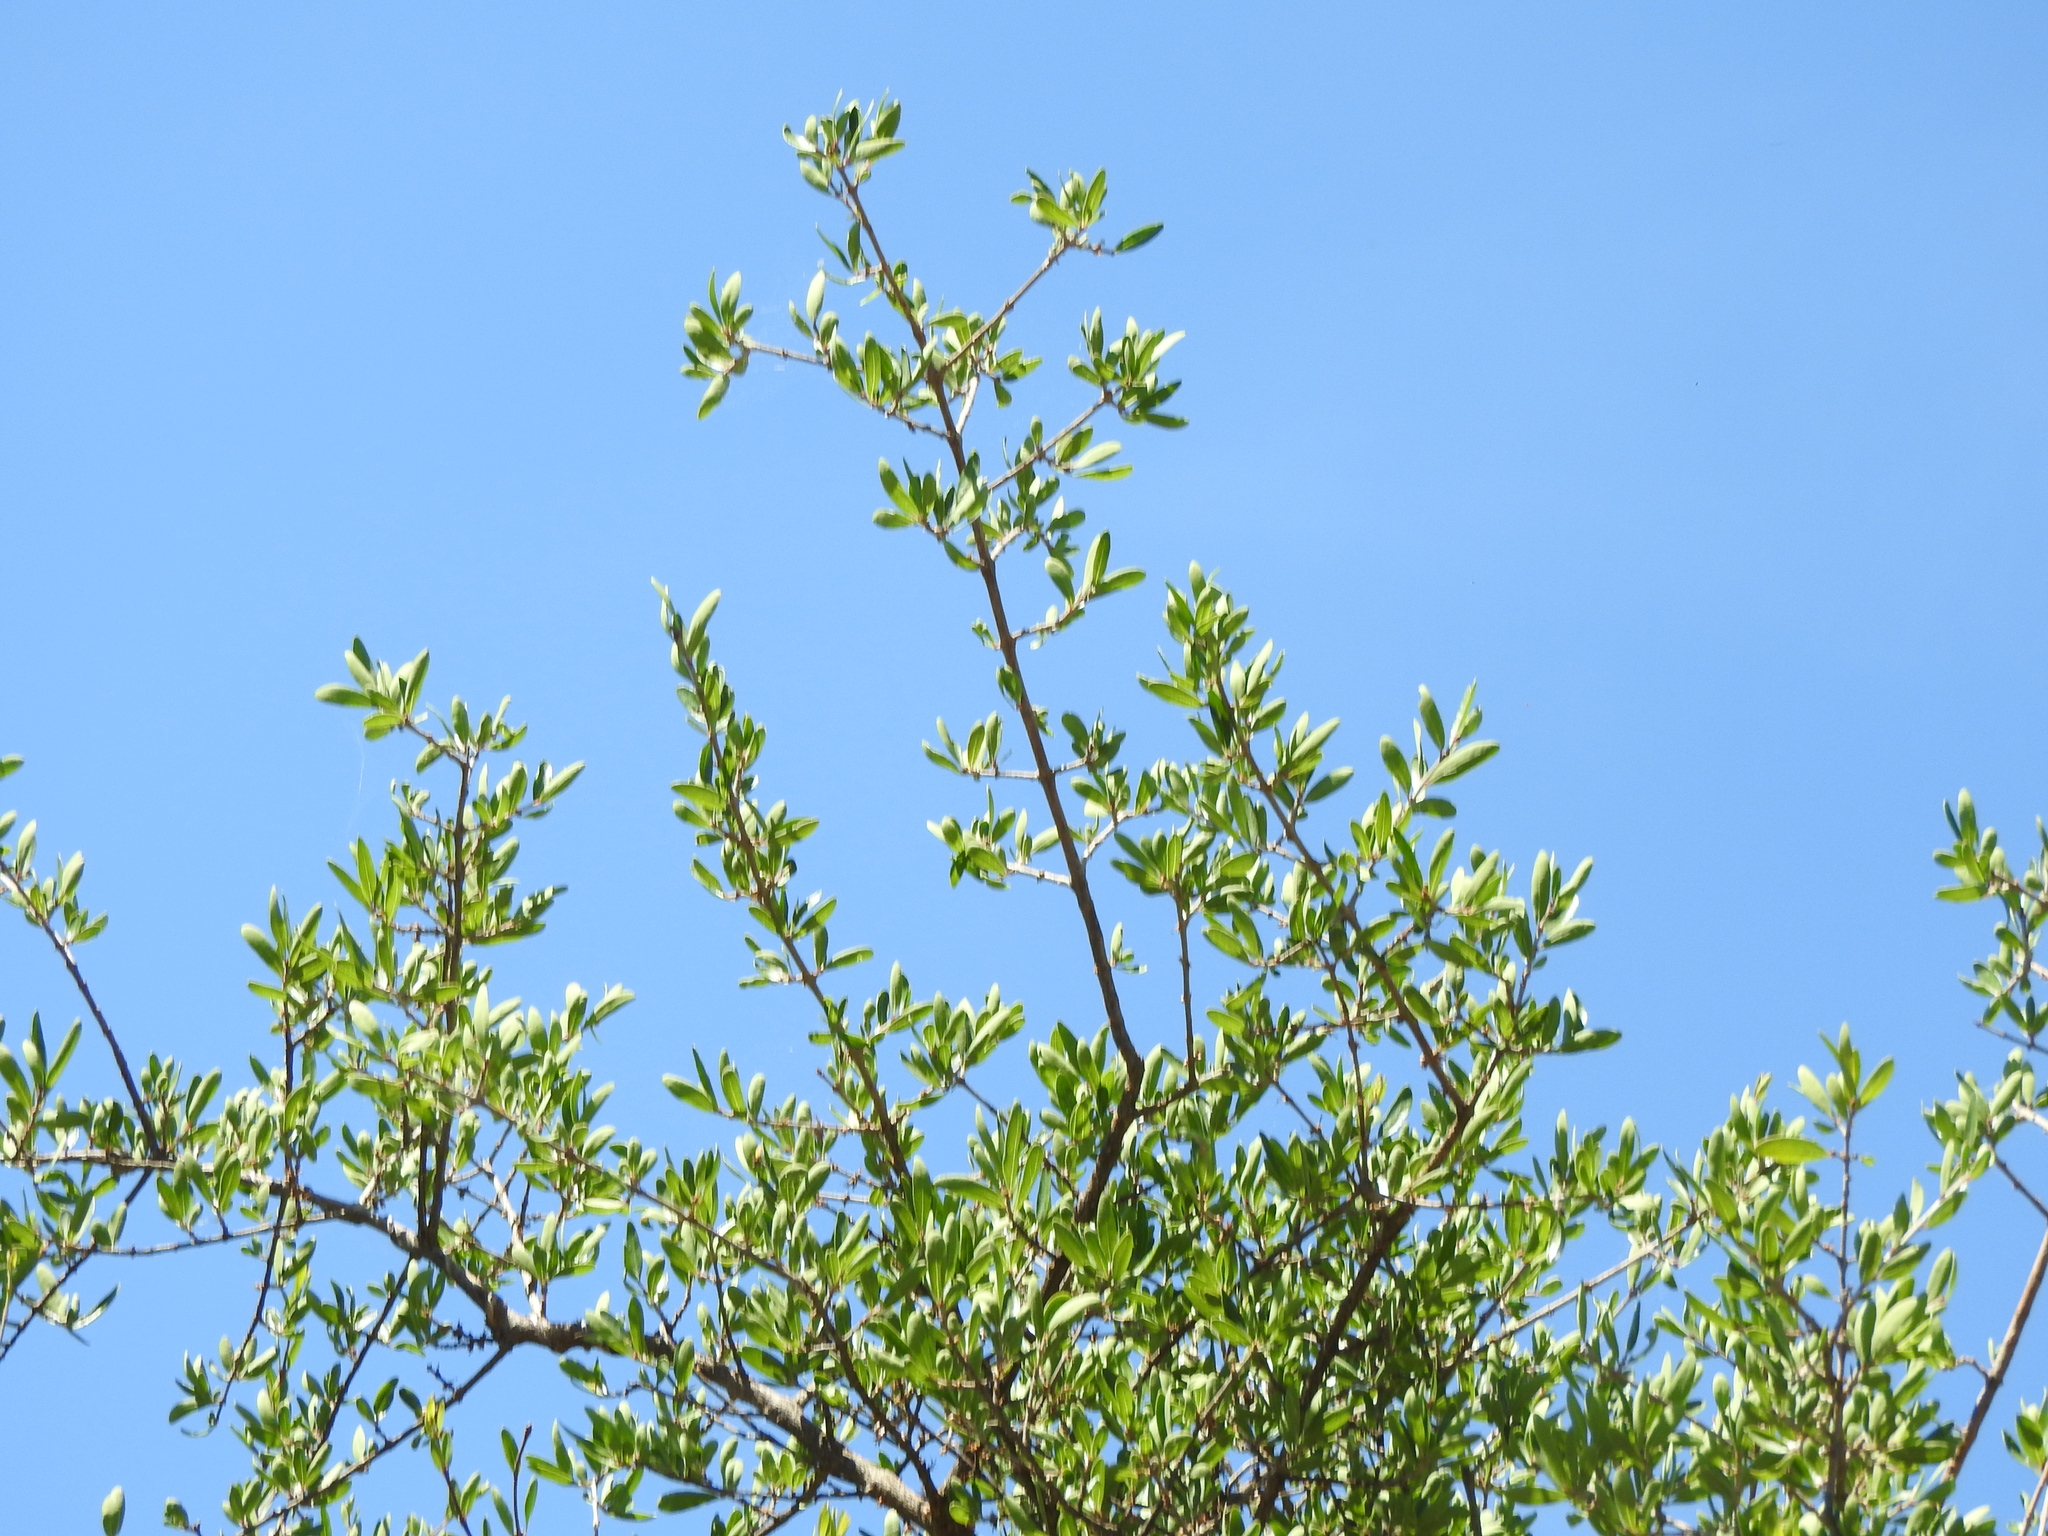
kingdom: Plantae
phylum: Tracheophyta
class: Magnoliopsida
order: Lamiales
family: Oleaceae
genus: Forestiera
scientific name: Forestiera phillyreoides
